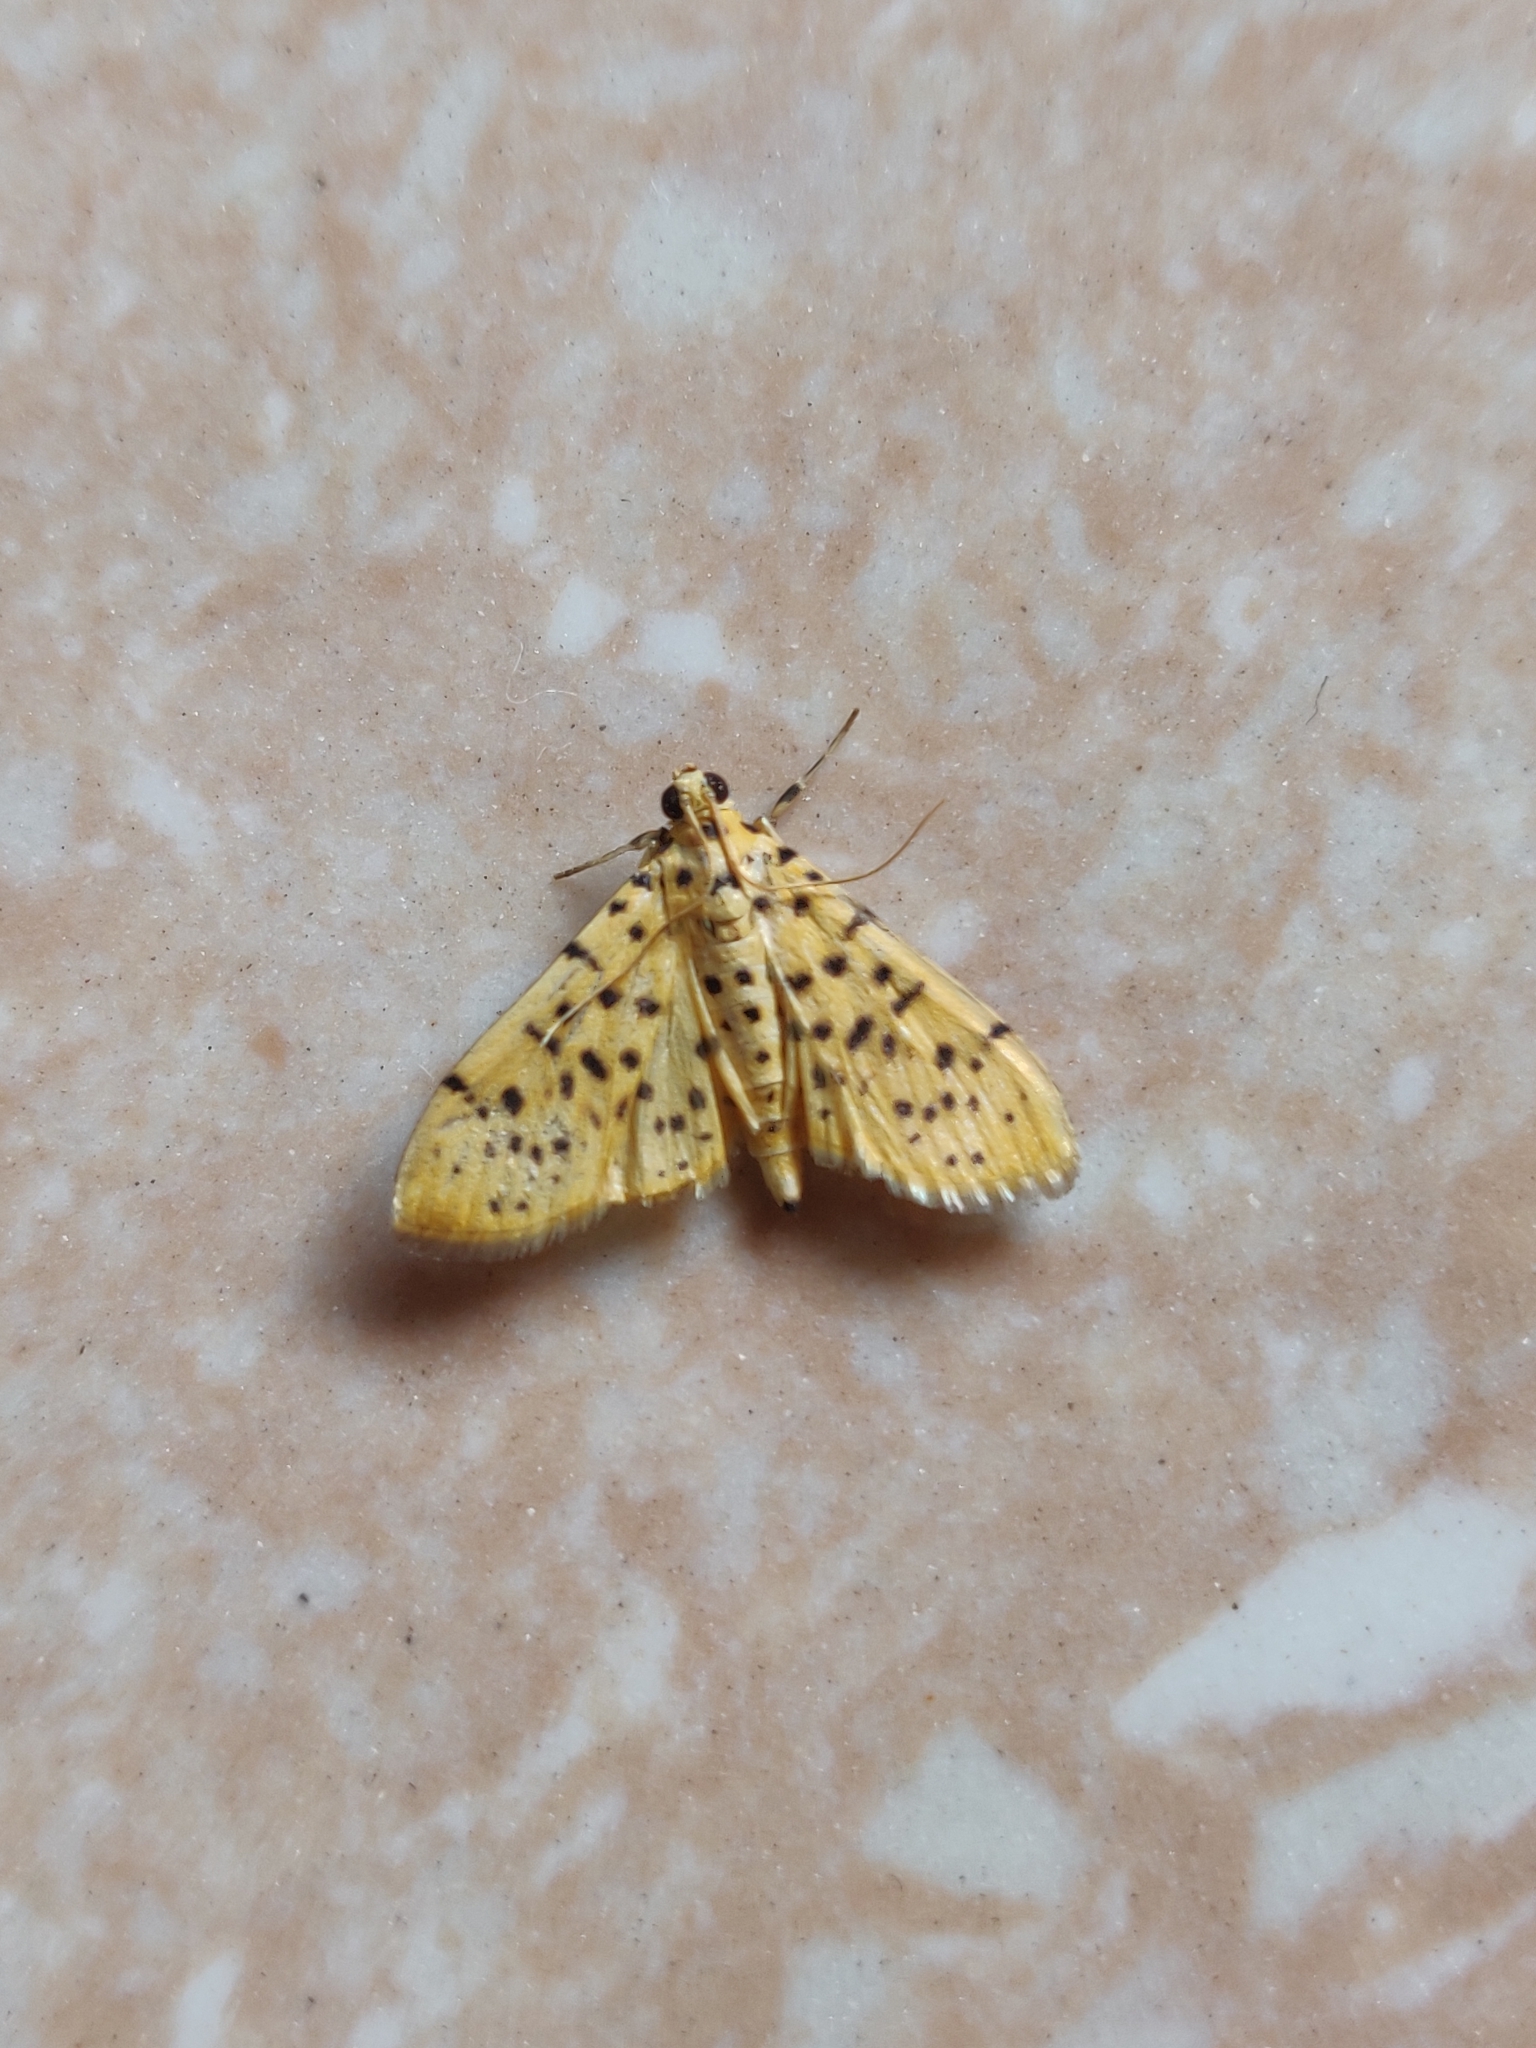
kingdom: Animalia
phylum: Arthropoda
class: Insecta
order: Lepidoptera
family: Crambidae
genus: Conogethes
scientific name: Conogethes punctiferalis
